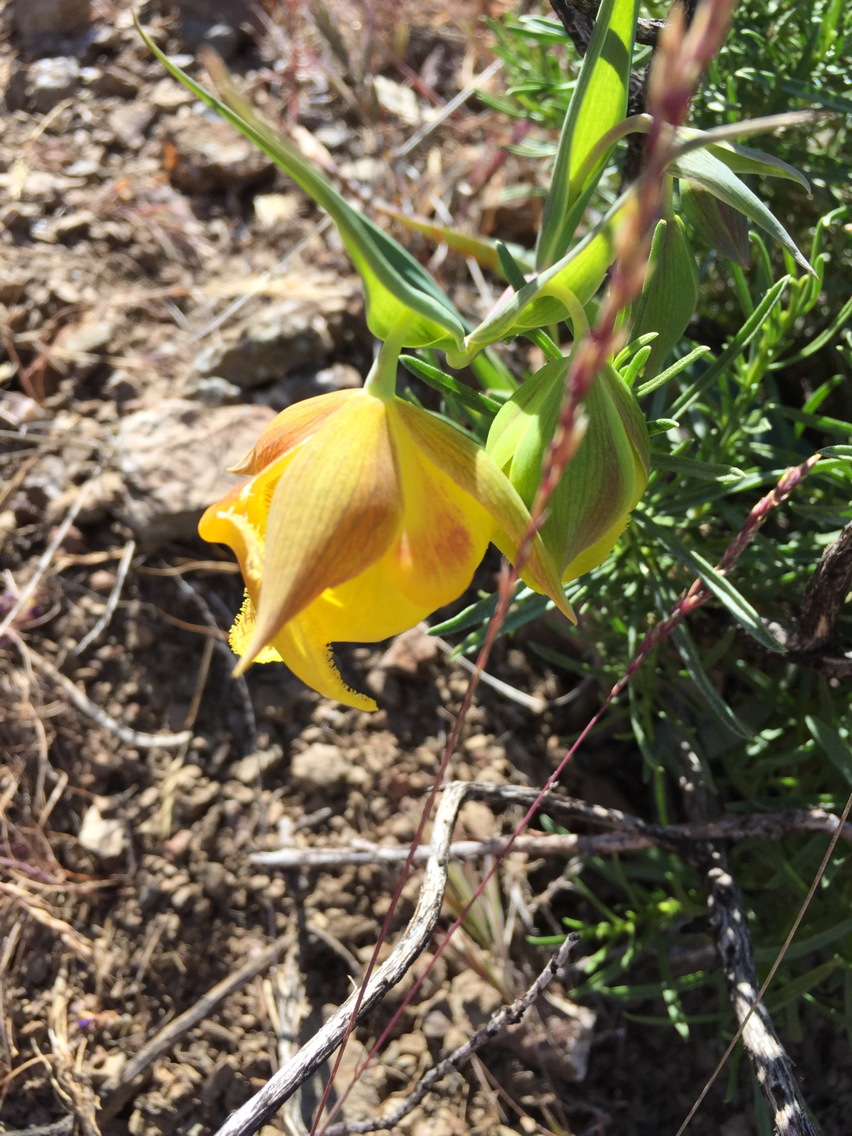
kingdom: Plantae
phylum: Tracheophyta
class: Liliopsida
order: Liliales
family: Liliaceae
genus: Calochortus
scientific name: Calochortus pulchellus
